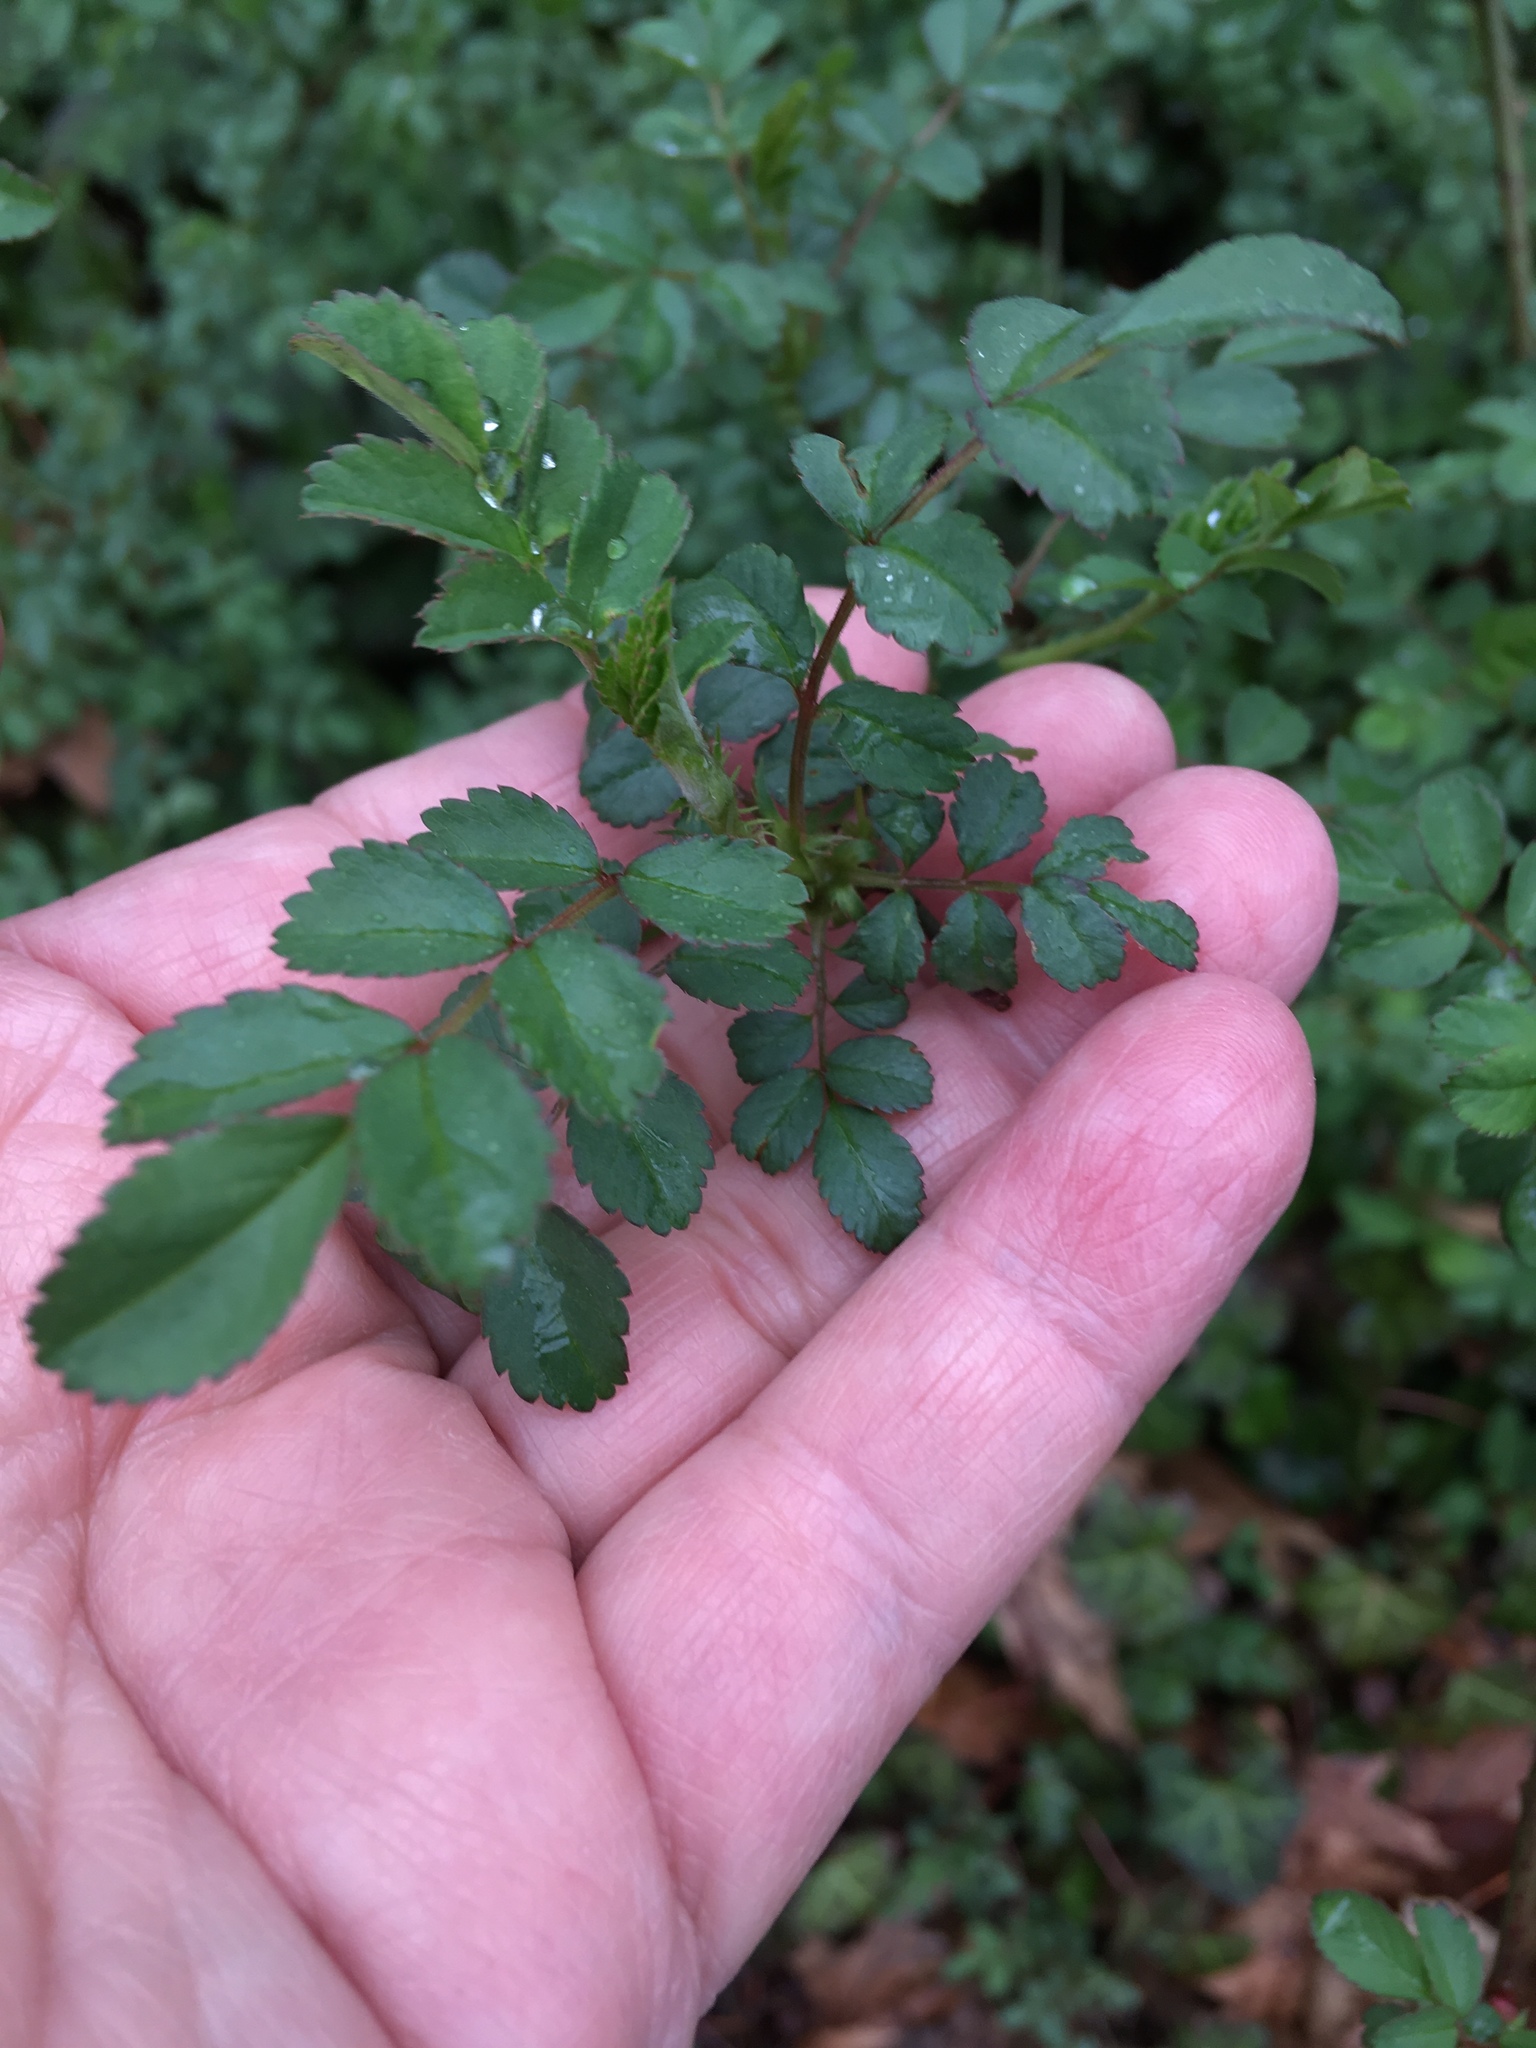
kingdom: Plantae
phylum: Tracheophyta
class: Magnoliopsida
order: Rosales
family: Rosaceae
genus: Rosa
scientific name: Rosa multiflora
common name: Multiflora rose
